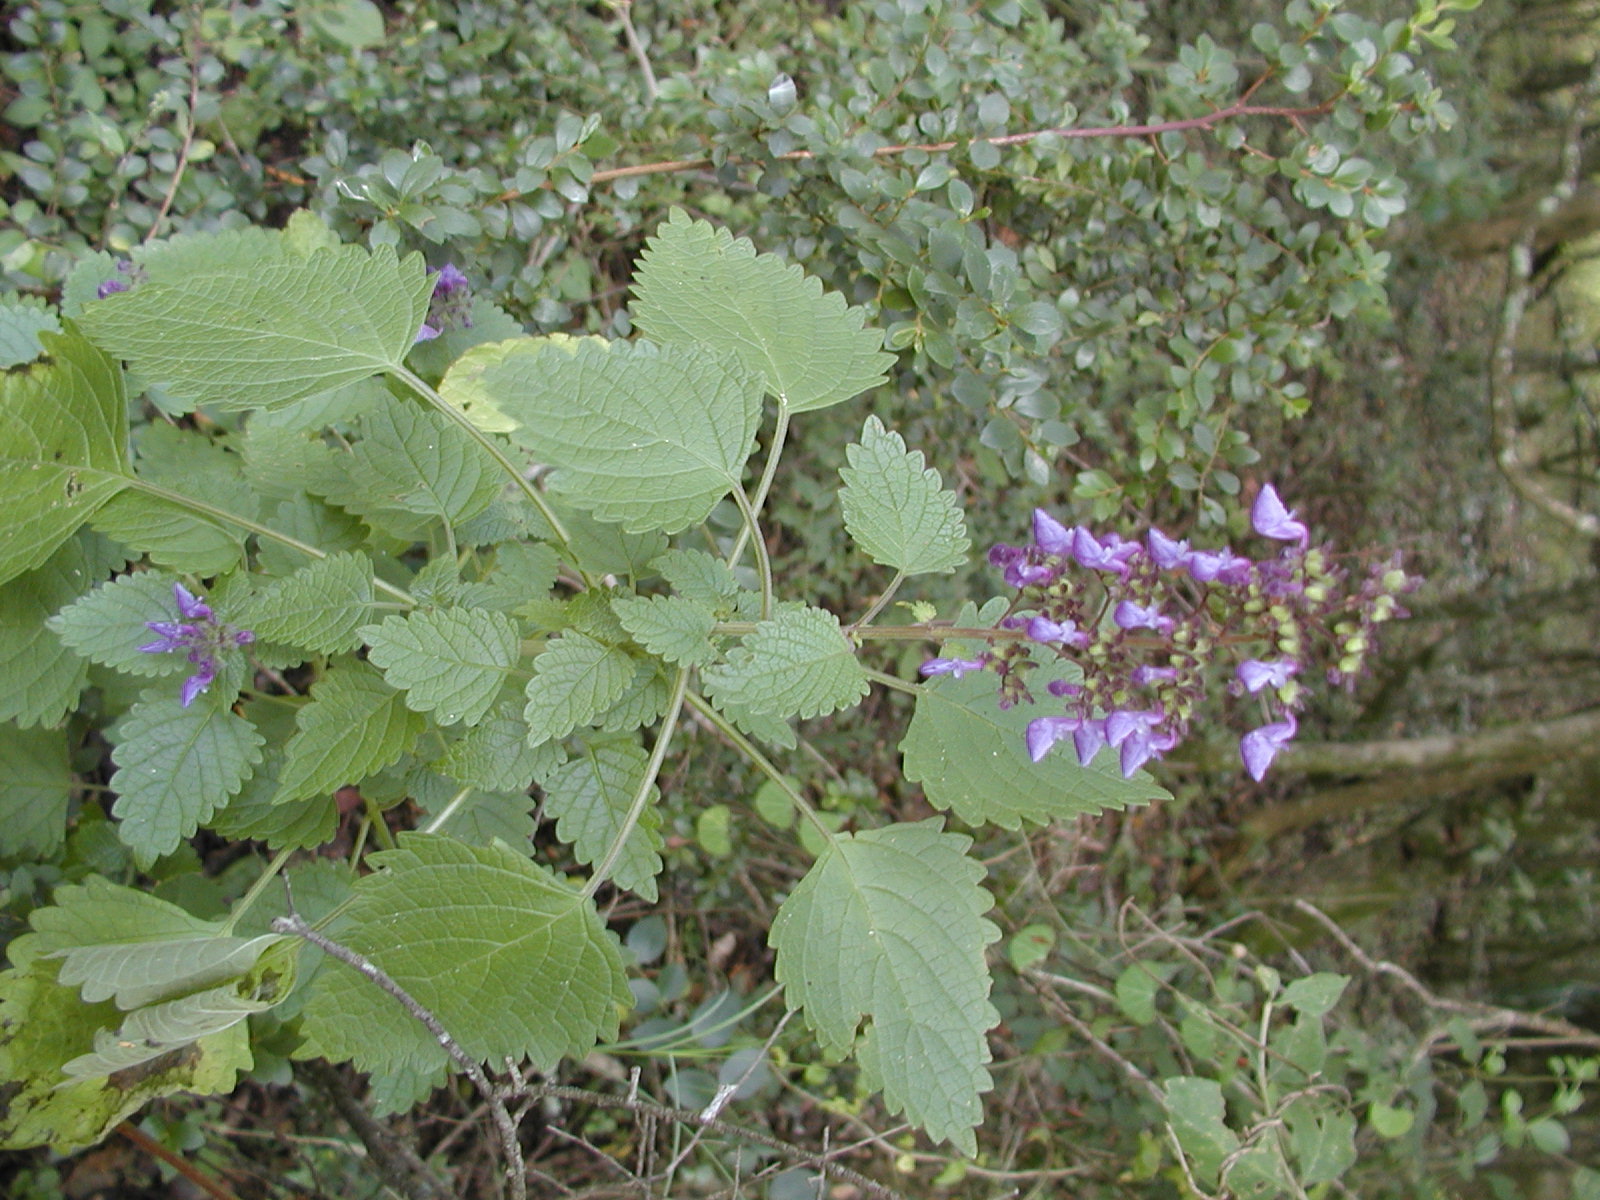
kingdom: Plantae
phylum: Tracheophyta
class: Magnoliopsida
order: Lamiales
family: Lamiaceae
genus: Coleus
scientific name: Coleus hereroensis
